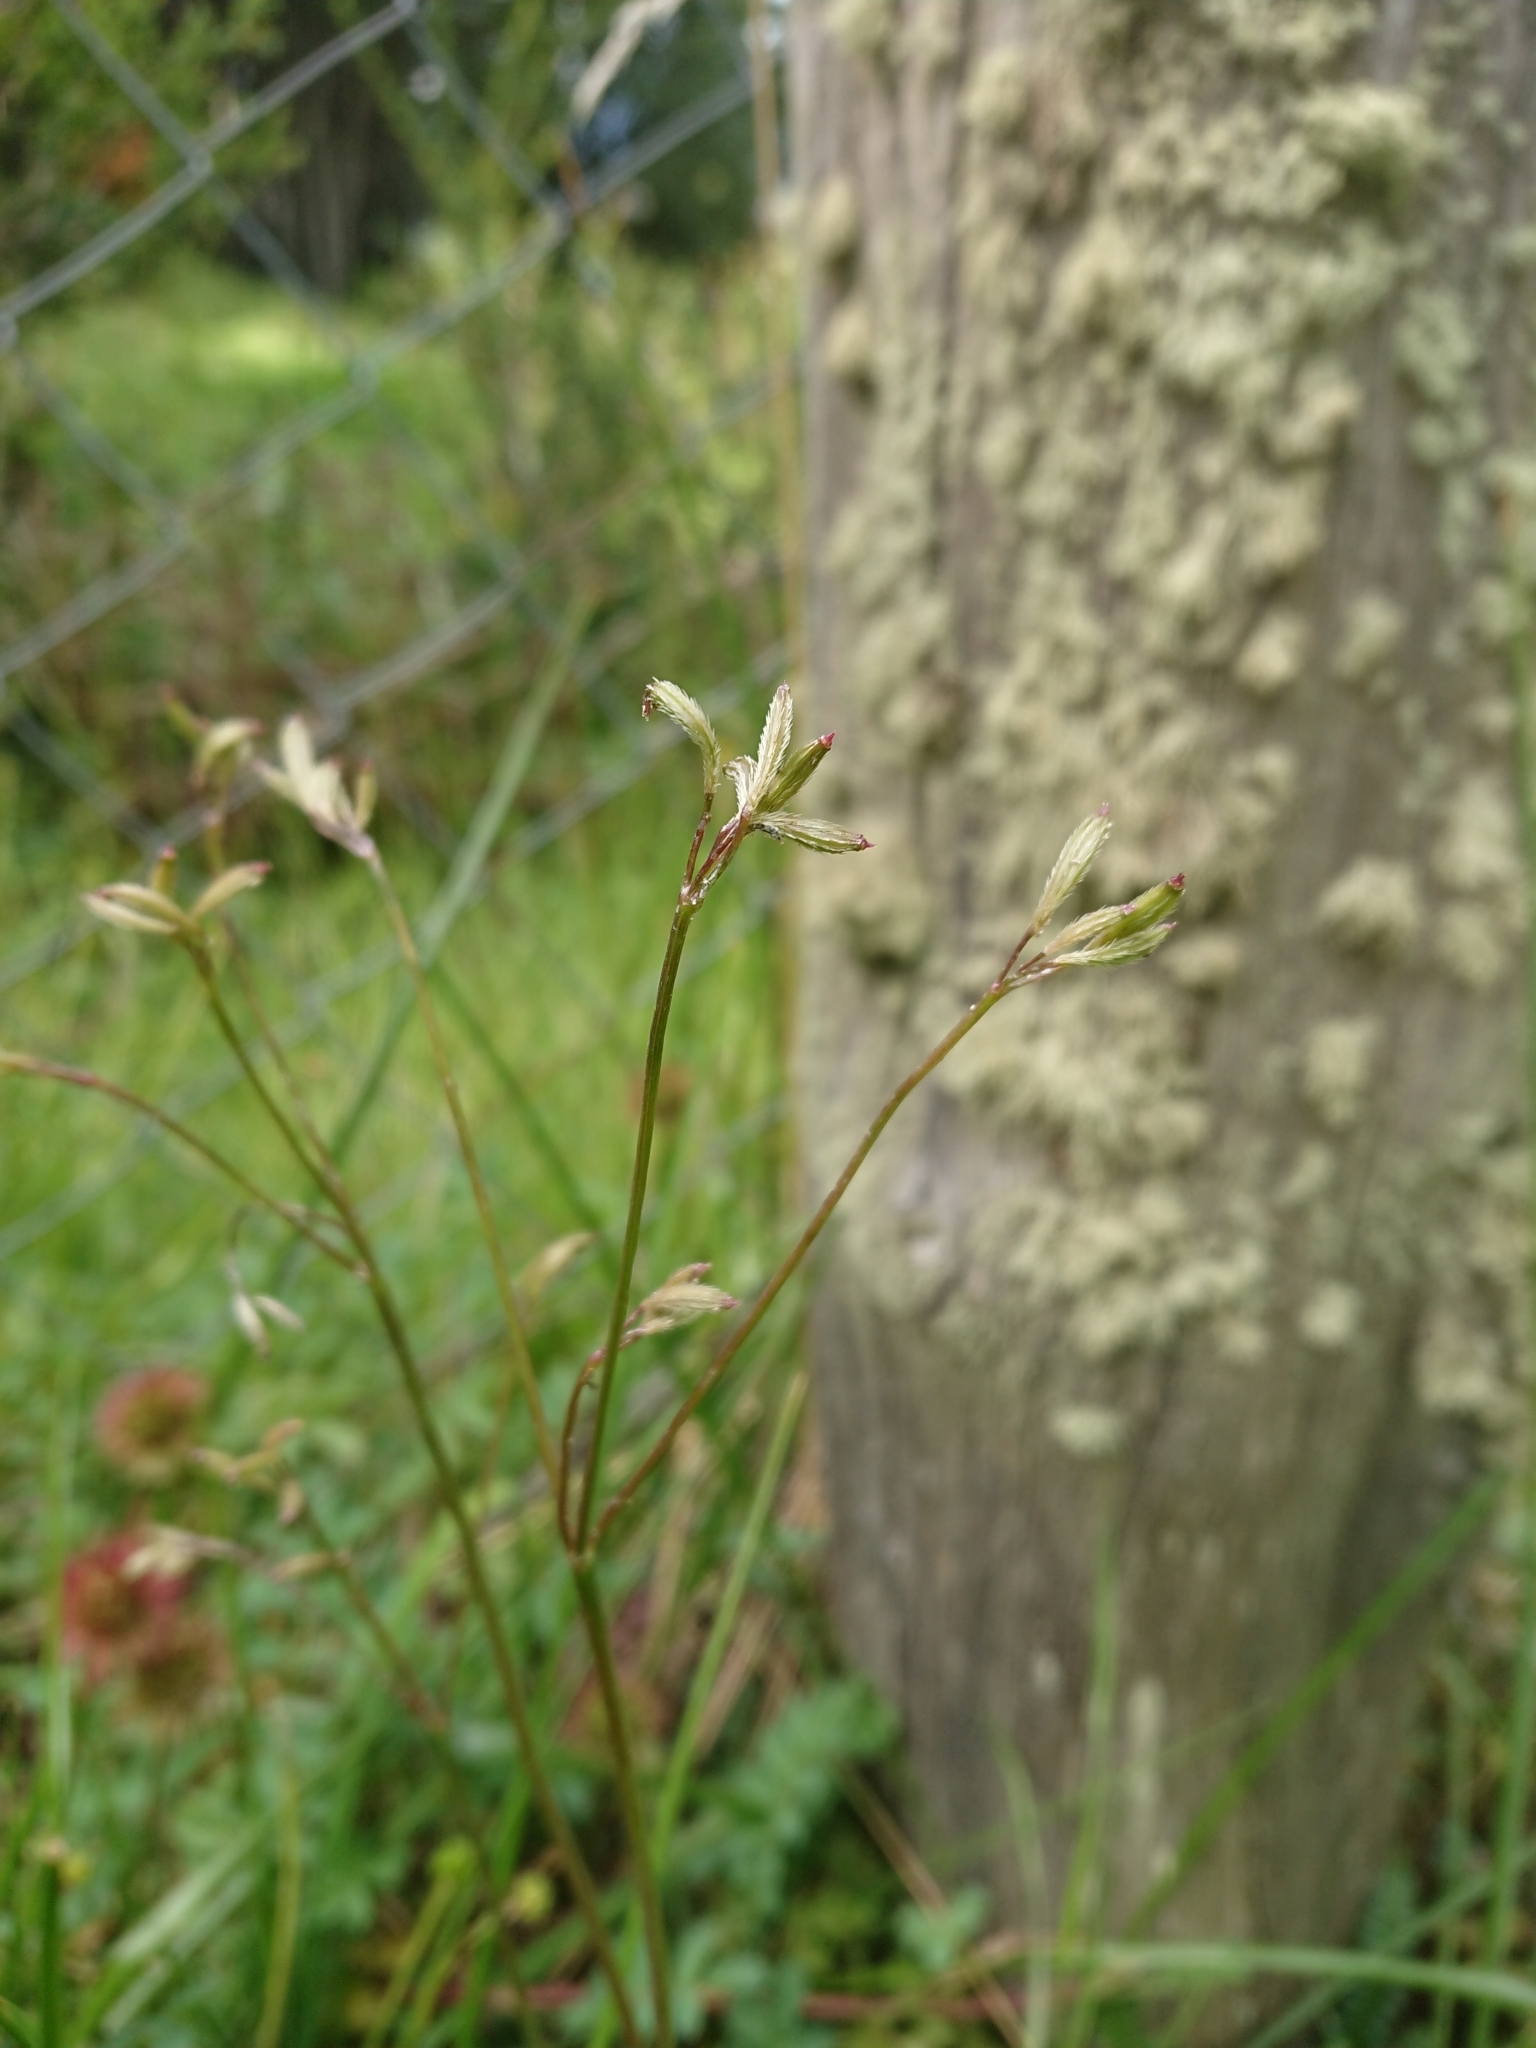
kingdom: Plantae
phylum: Tracheophyta
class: Magnoliopsida
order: Apiales
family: Apiaceae
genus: Osmorhiza
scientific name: Osmorhiza berteroi
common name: Mountain sweet cicely
